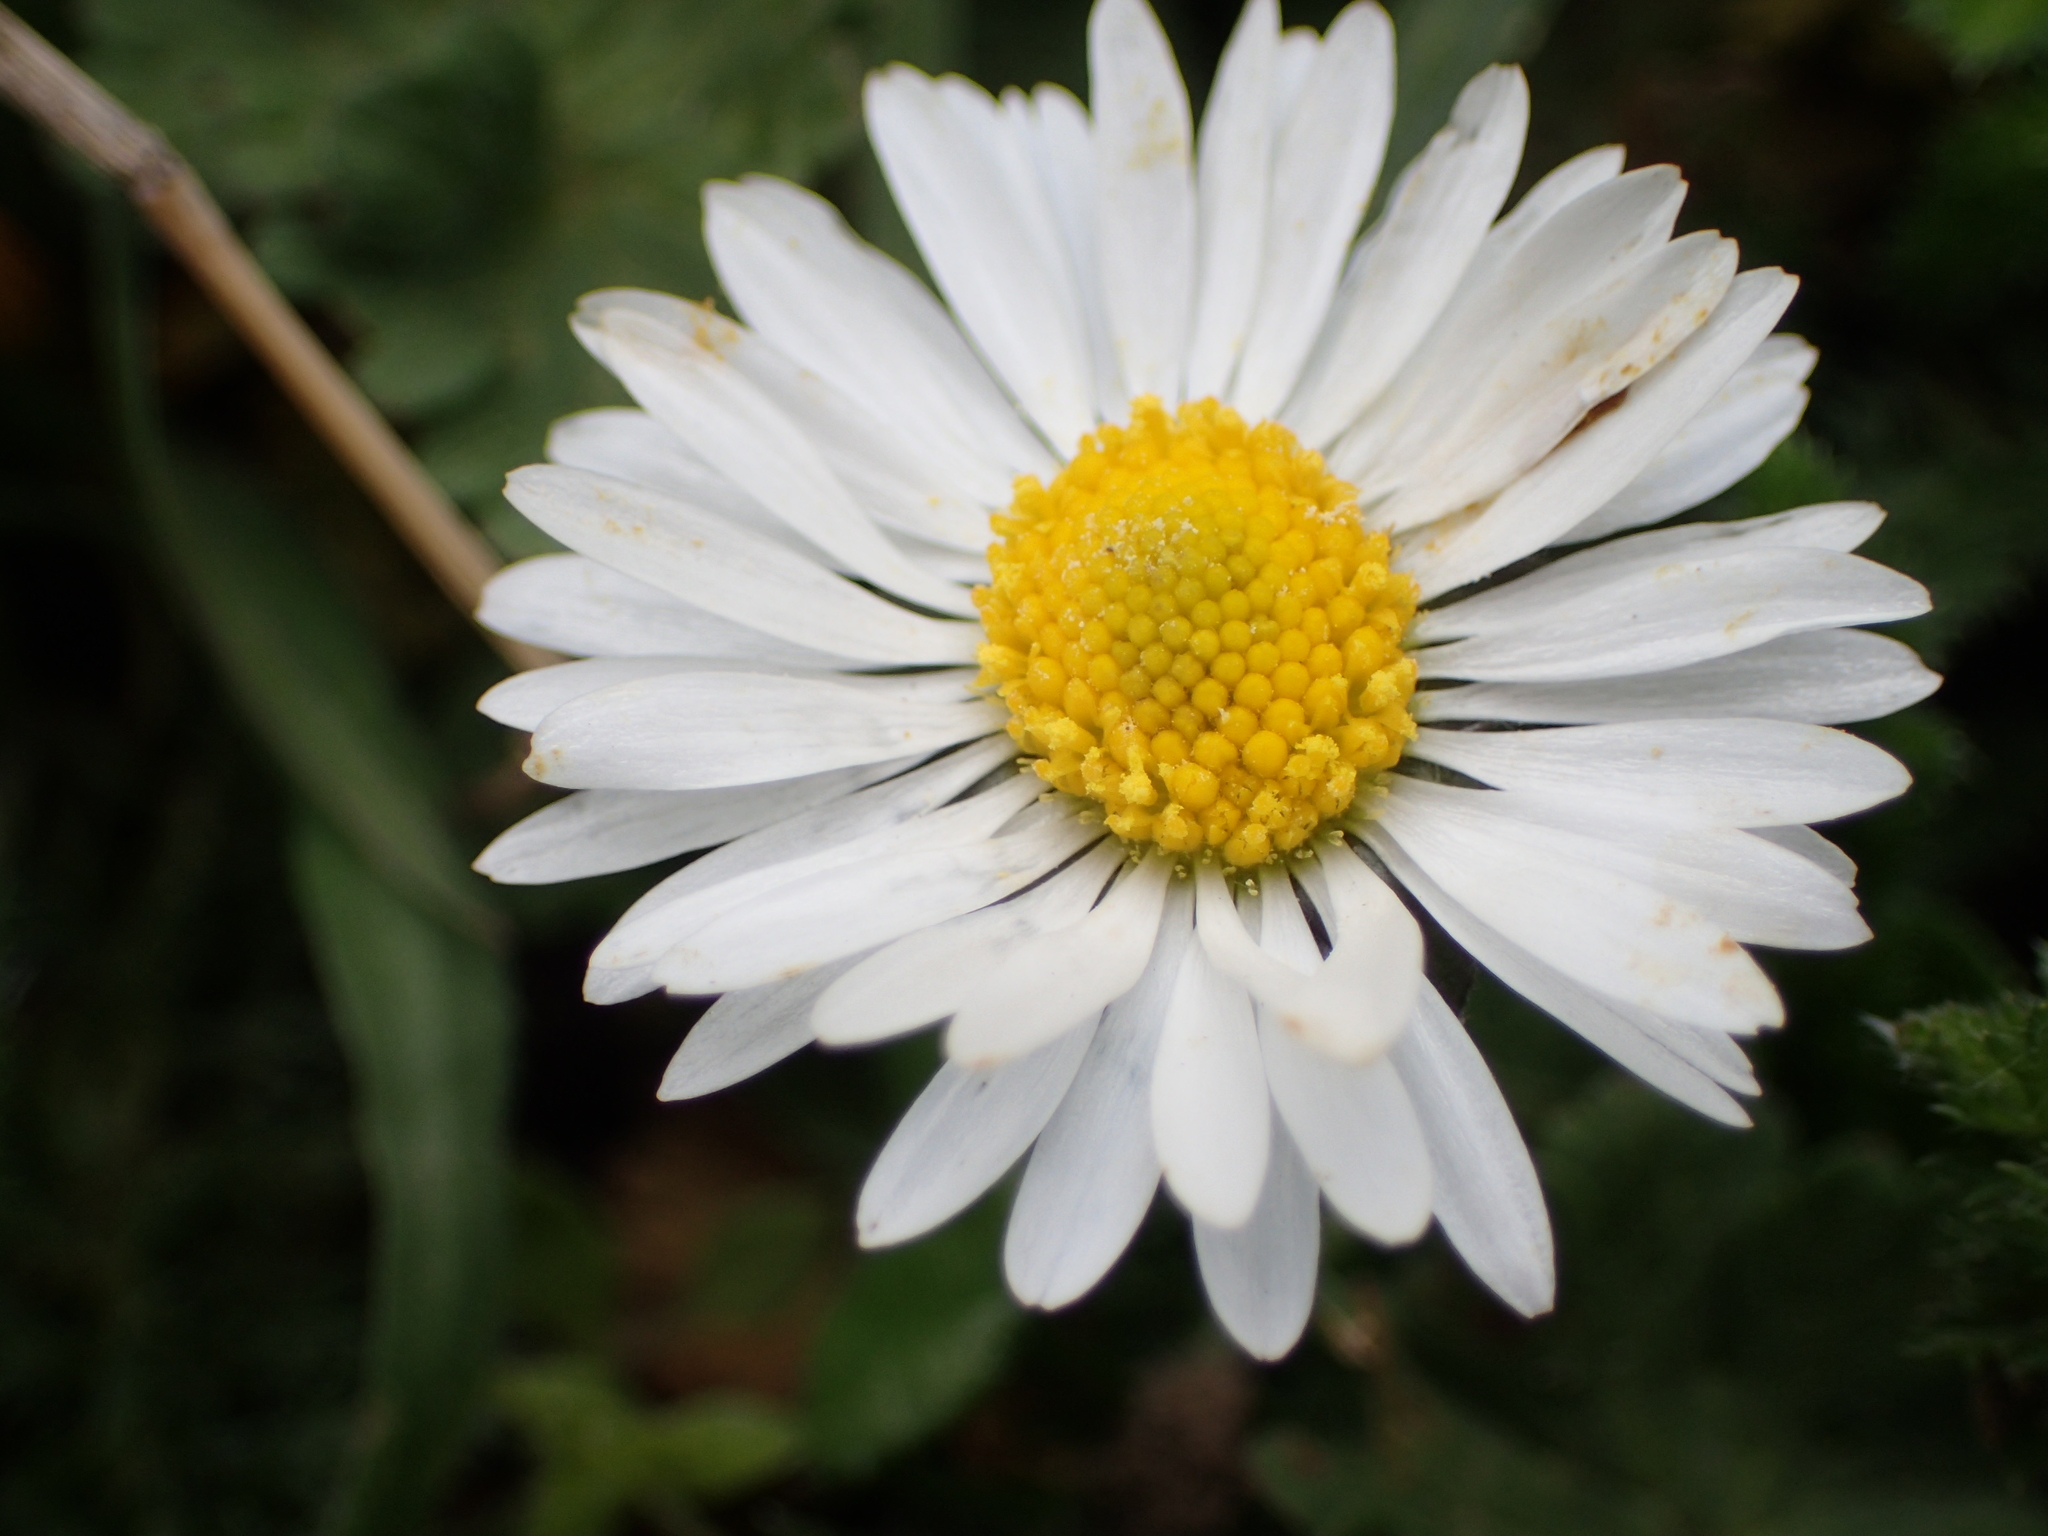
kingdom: Plantae
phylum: Tracheophyta
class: Magnoliopsida
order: Asterales
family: Asteraceae
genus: Bellis
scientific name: Bellis perennis
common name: Lawndaisy
